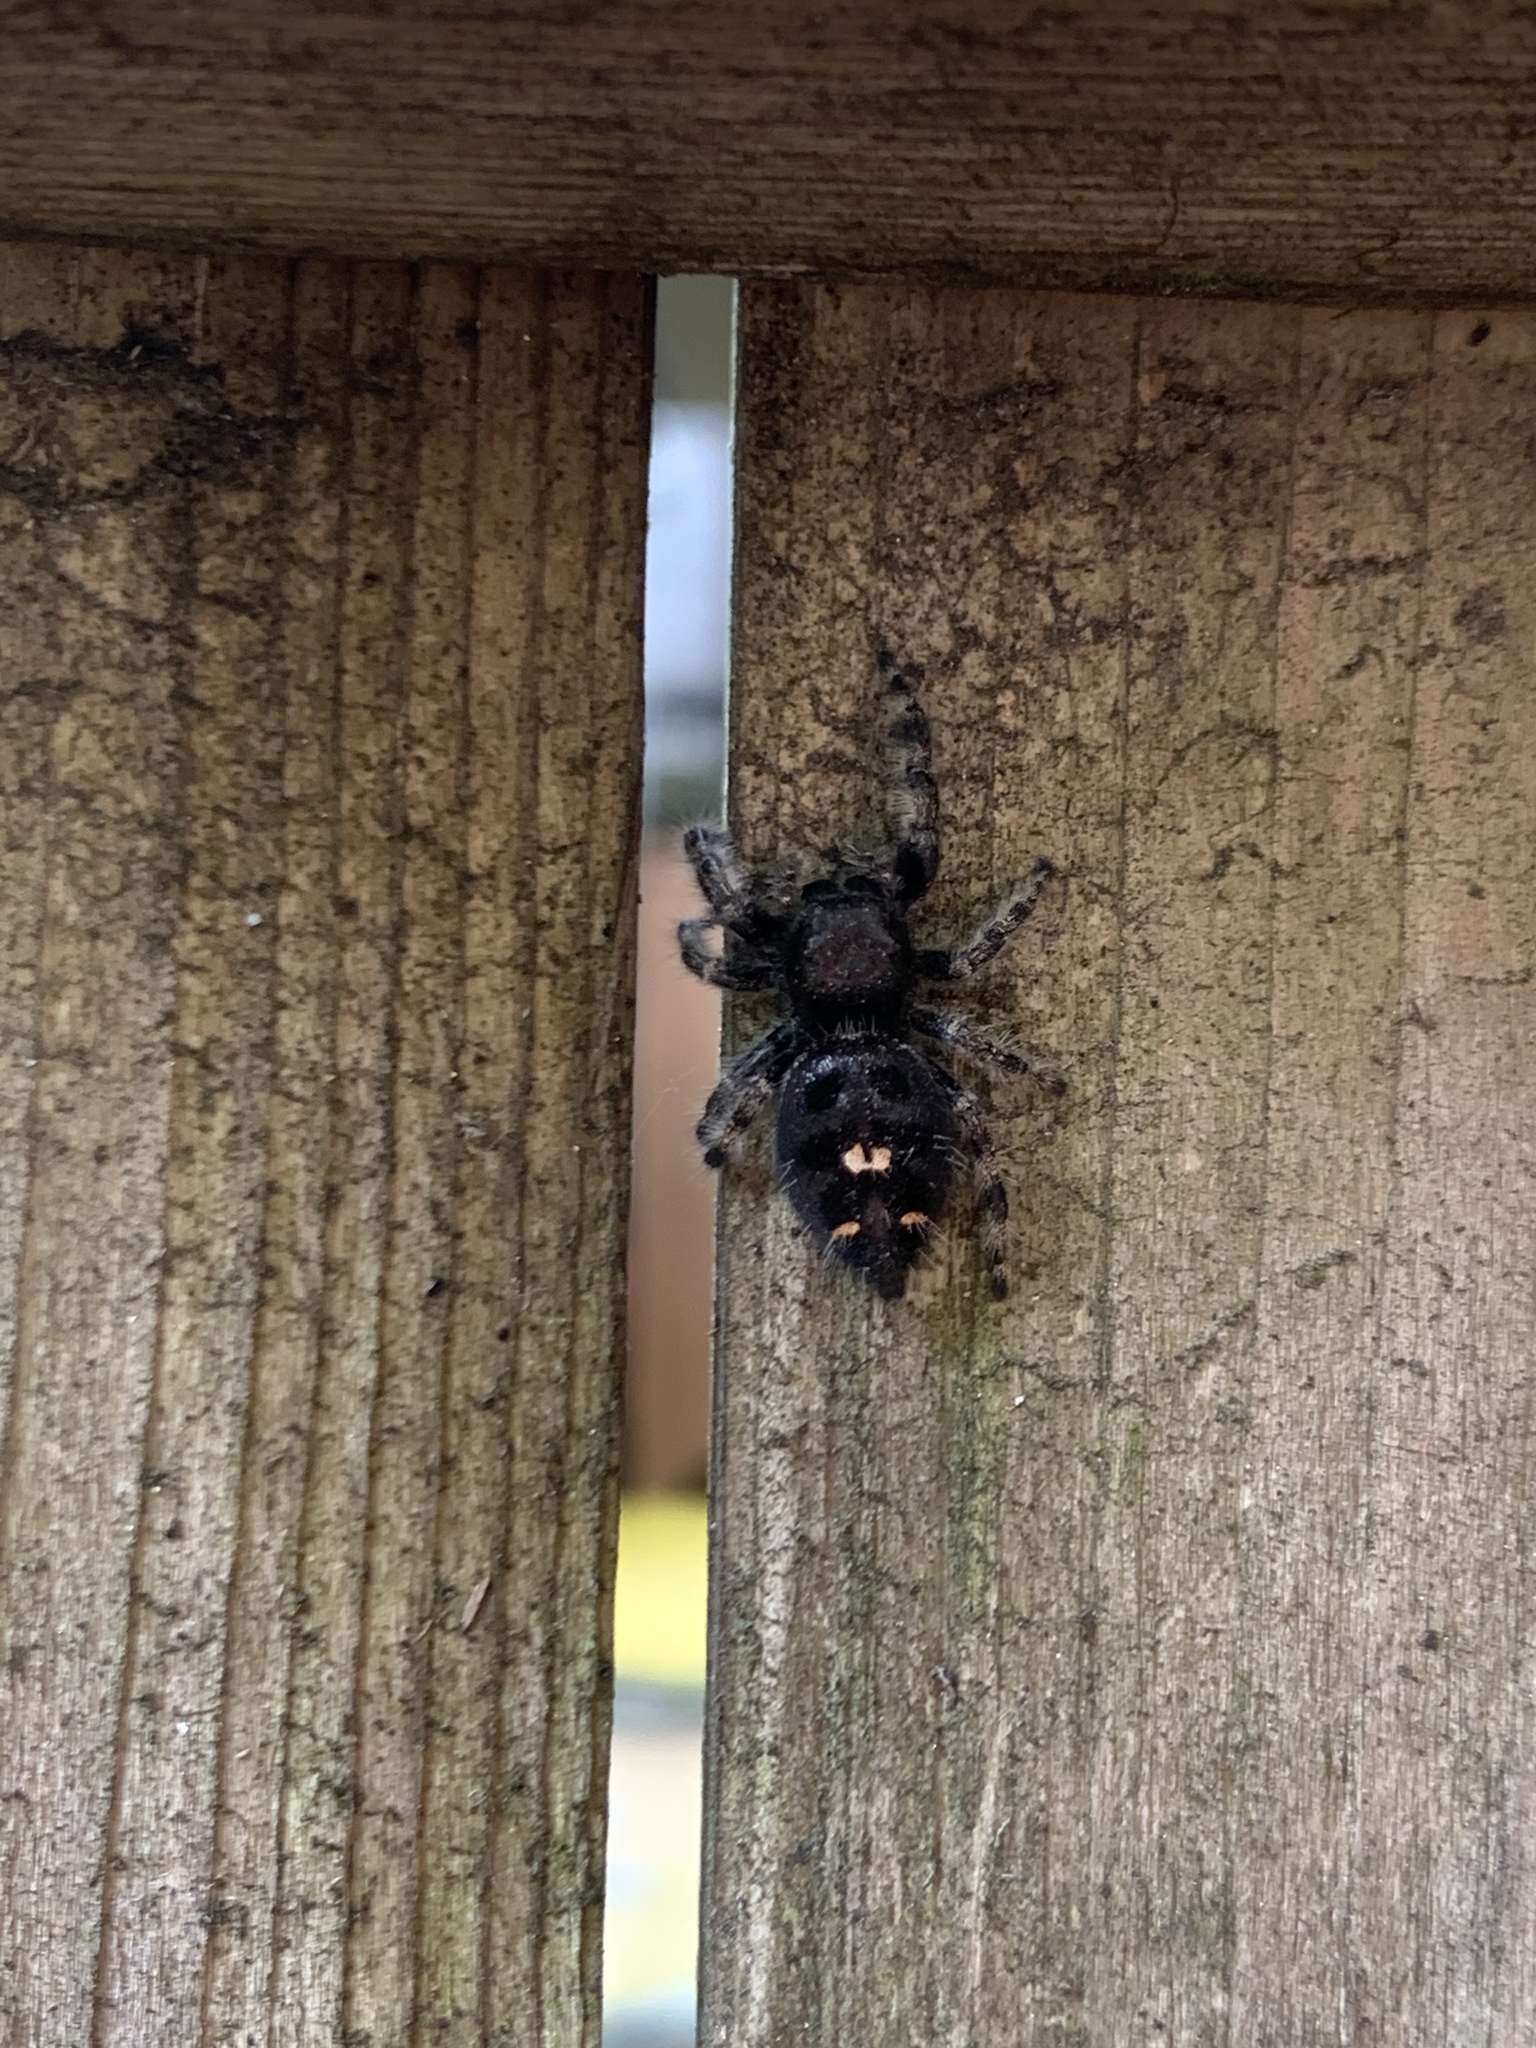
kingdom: Animalia
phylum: Arthropoda
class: Arachnida
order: Araneae
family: Salticidae
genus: Phidippus
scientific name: Phidippus audax
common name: Bold jumper
